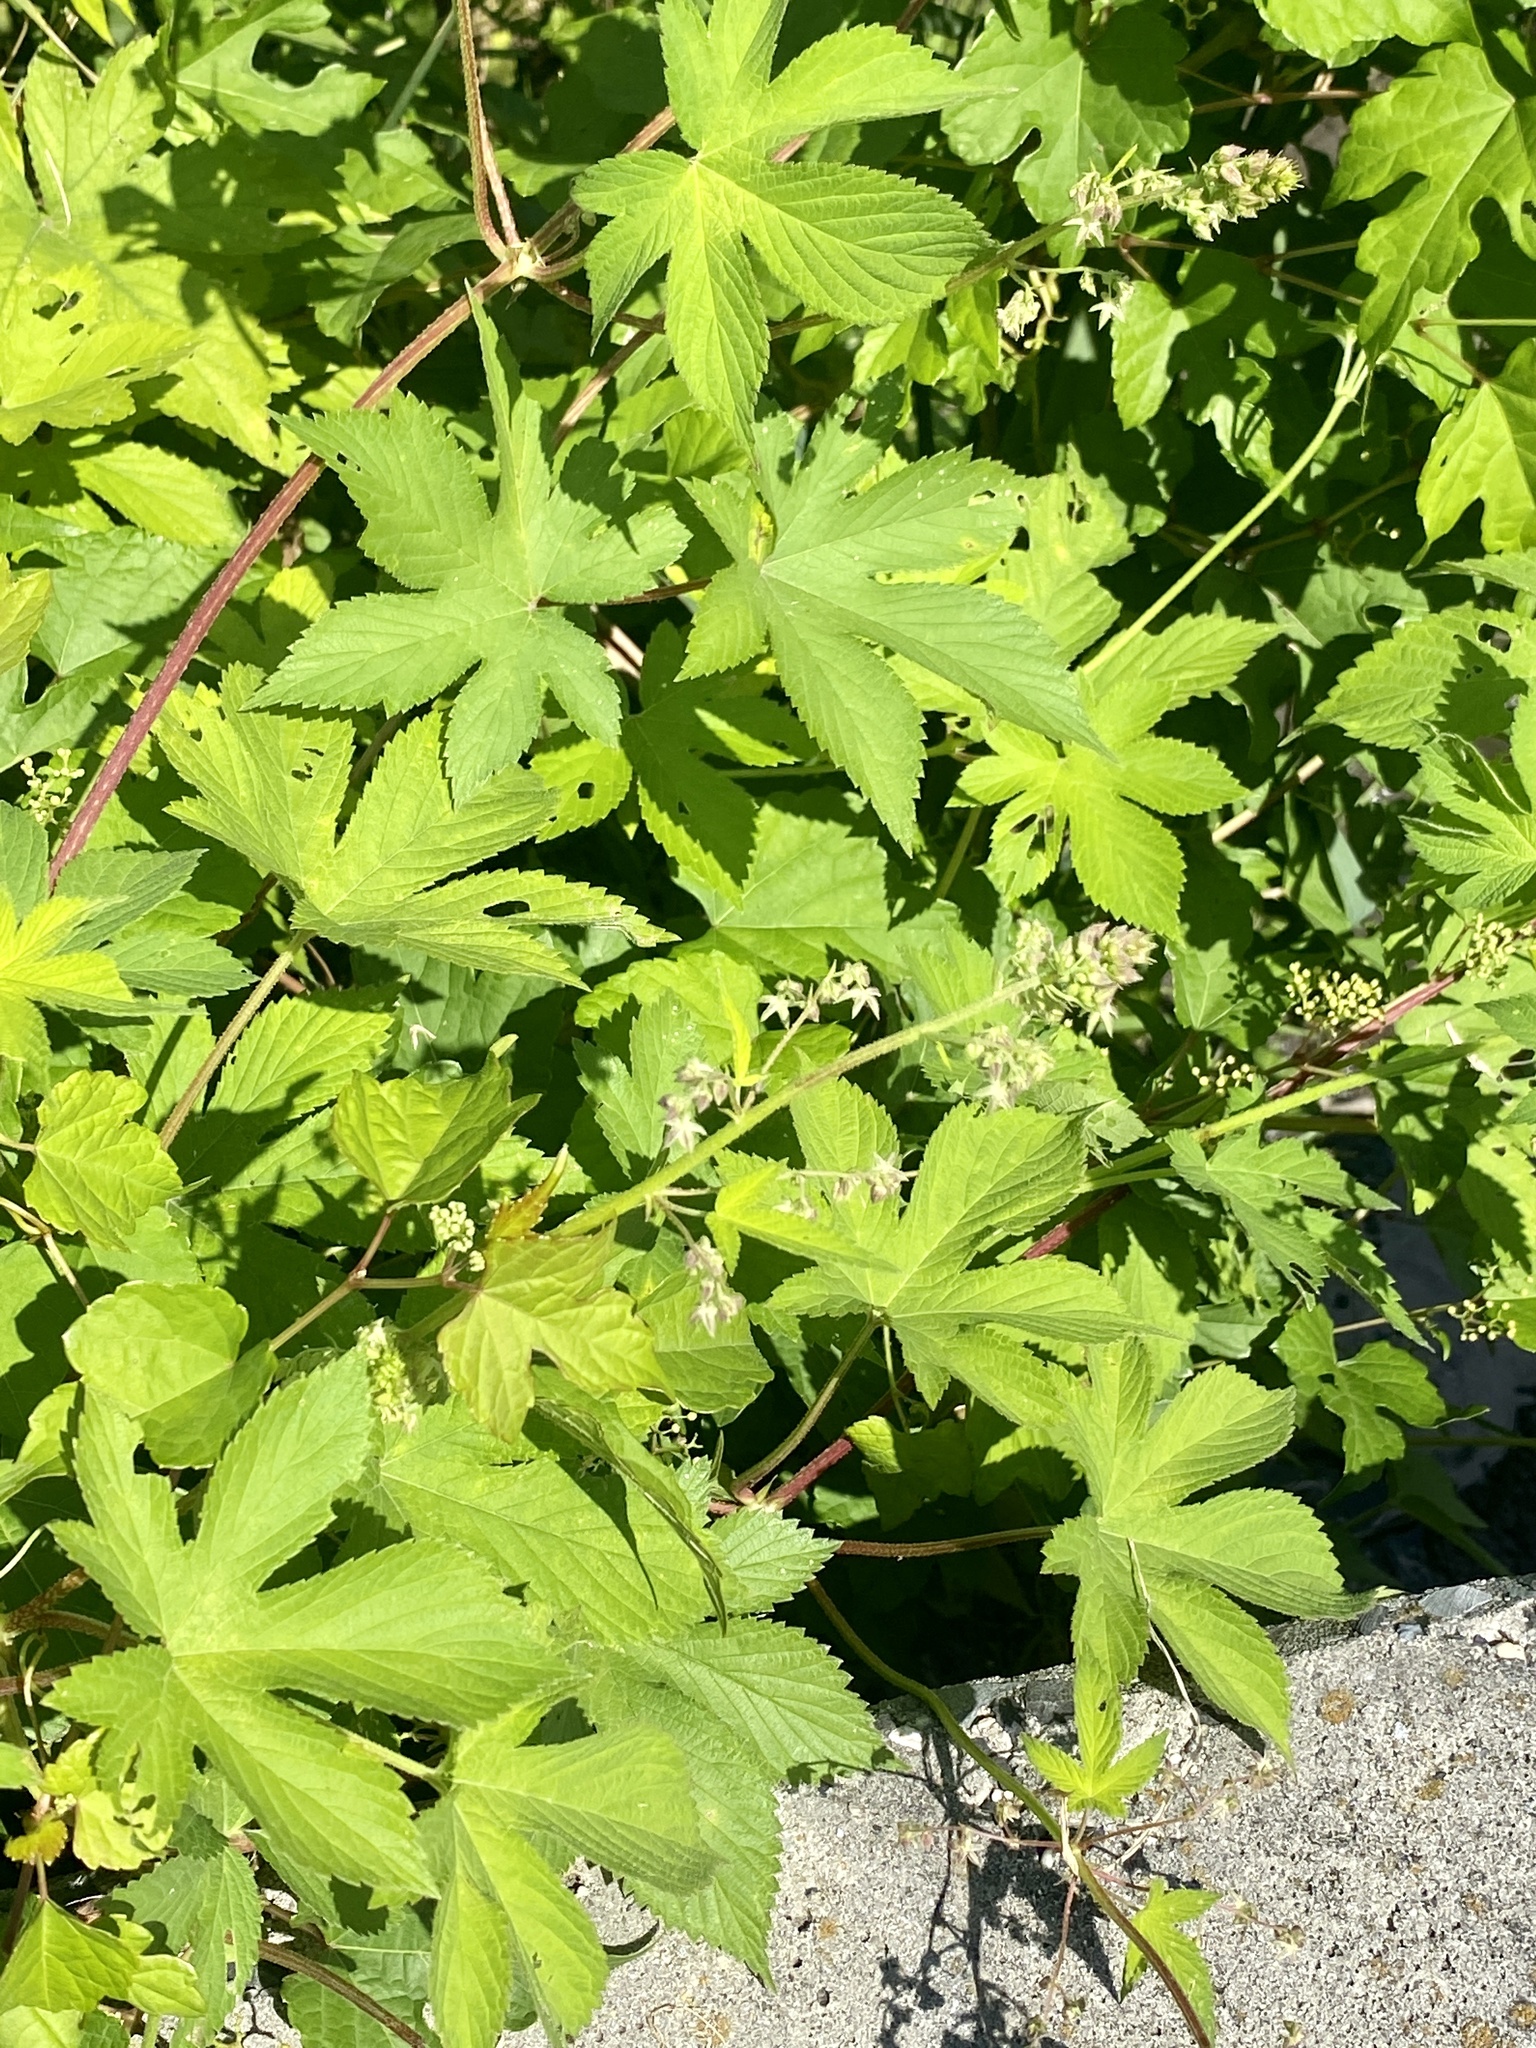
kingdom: Plantae
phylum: Tracheophyta
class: Magnoliopsida
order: Rosales
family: Cannabaceae
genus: Humulus
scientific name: Humulus scandens
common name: Japanese hop
